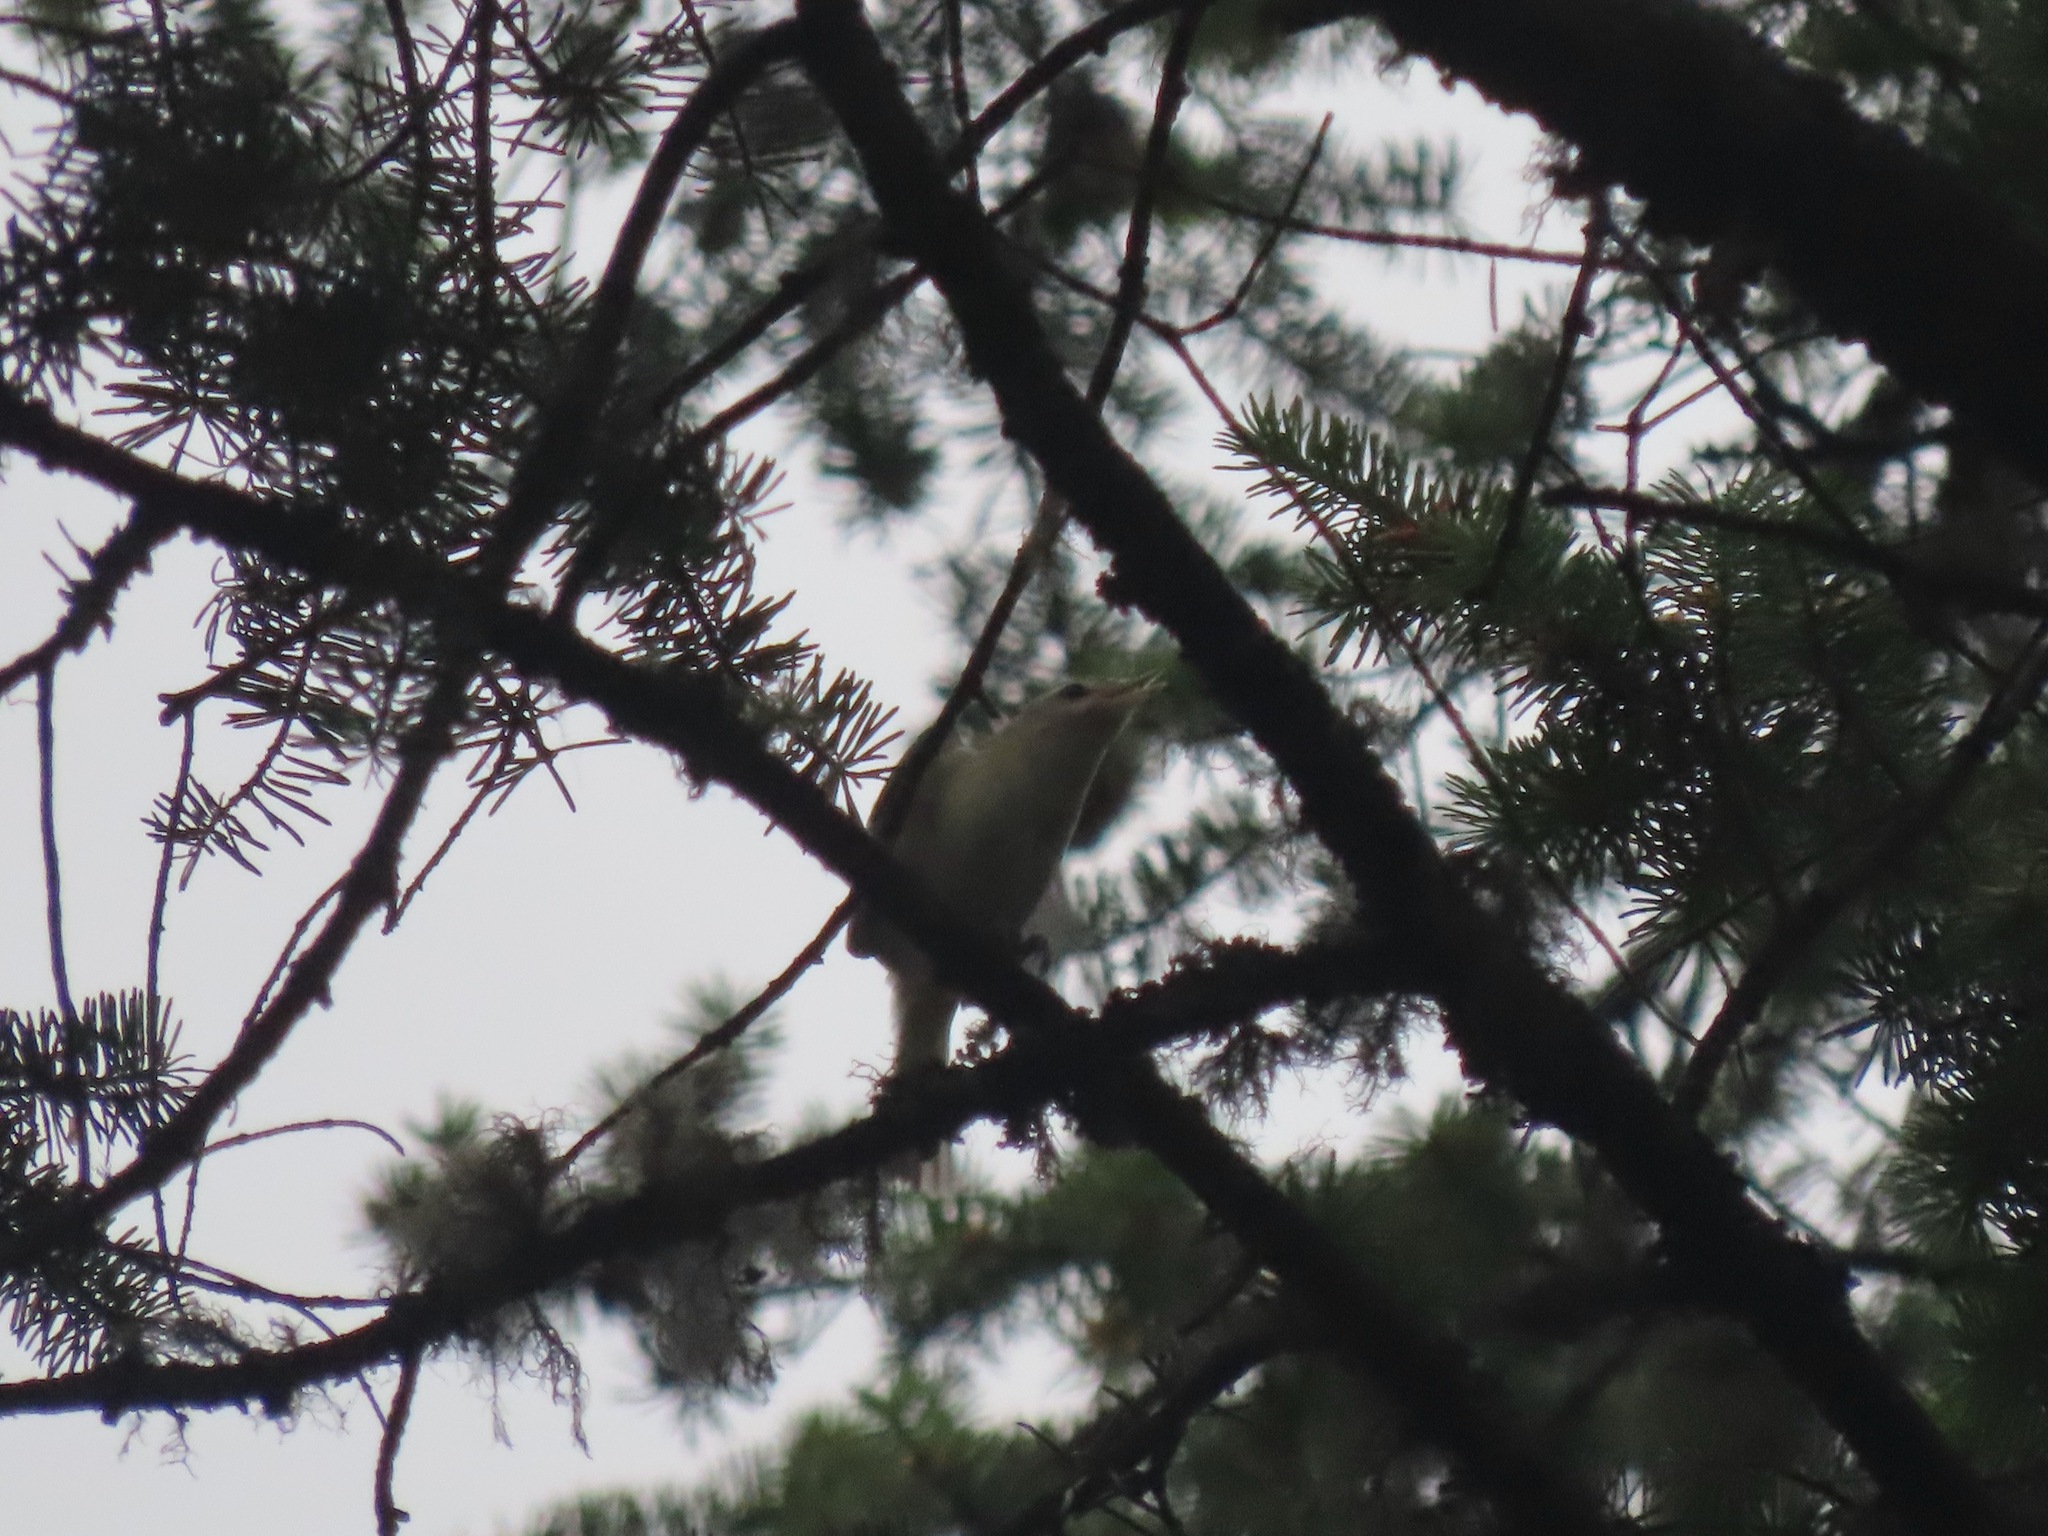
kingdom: Animalia
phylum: Chordata
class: Aves
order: Passeriformes
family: Vireonidae
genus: Vireo
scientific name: Vireo gilvus
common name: Warbling vireo
